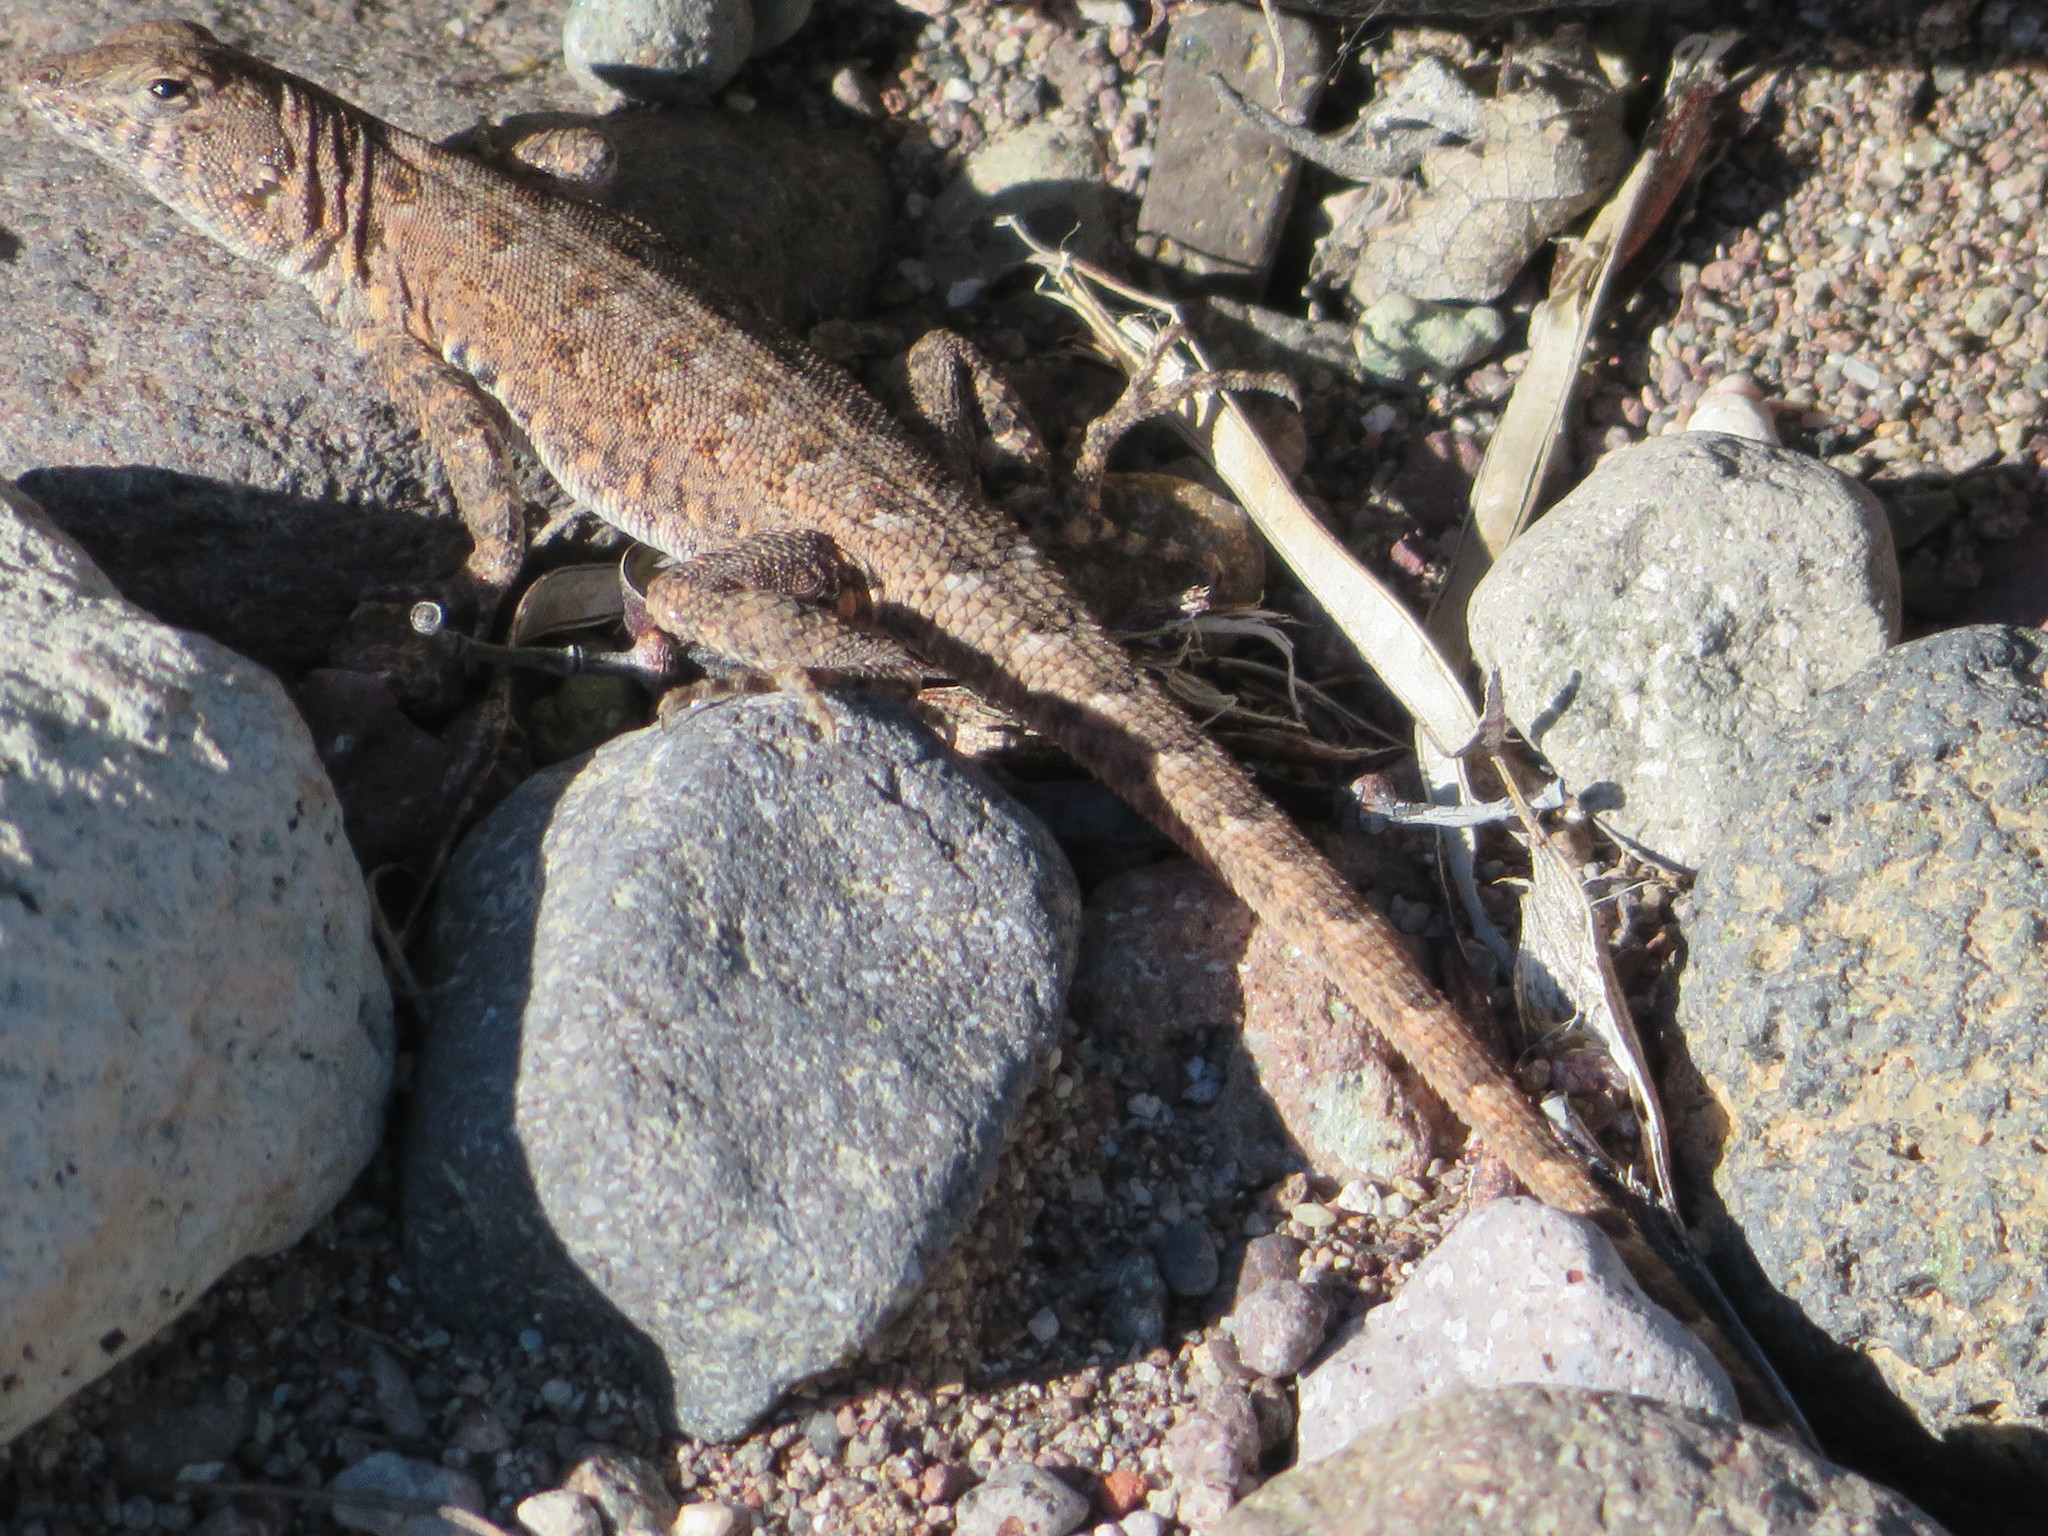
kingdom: Animalia
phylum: Chordata
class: Squamata
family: Phrynosomatidae
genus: Uta
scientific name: Uta stansburiana
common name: Side-blotched lizard
